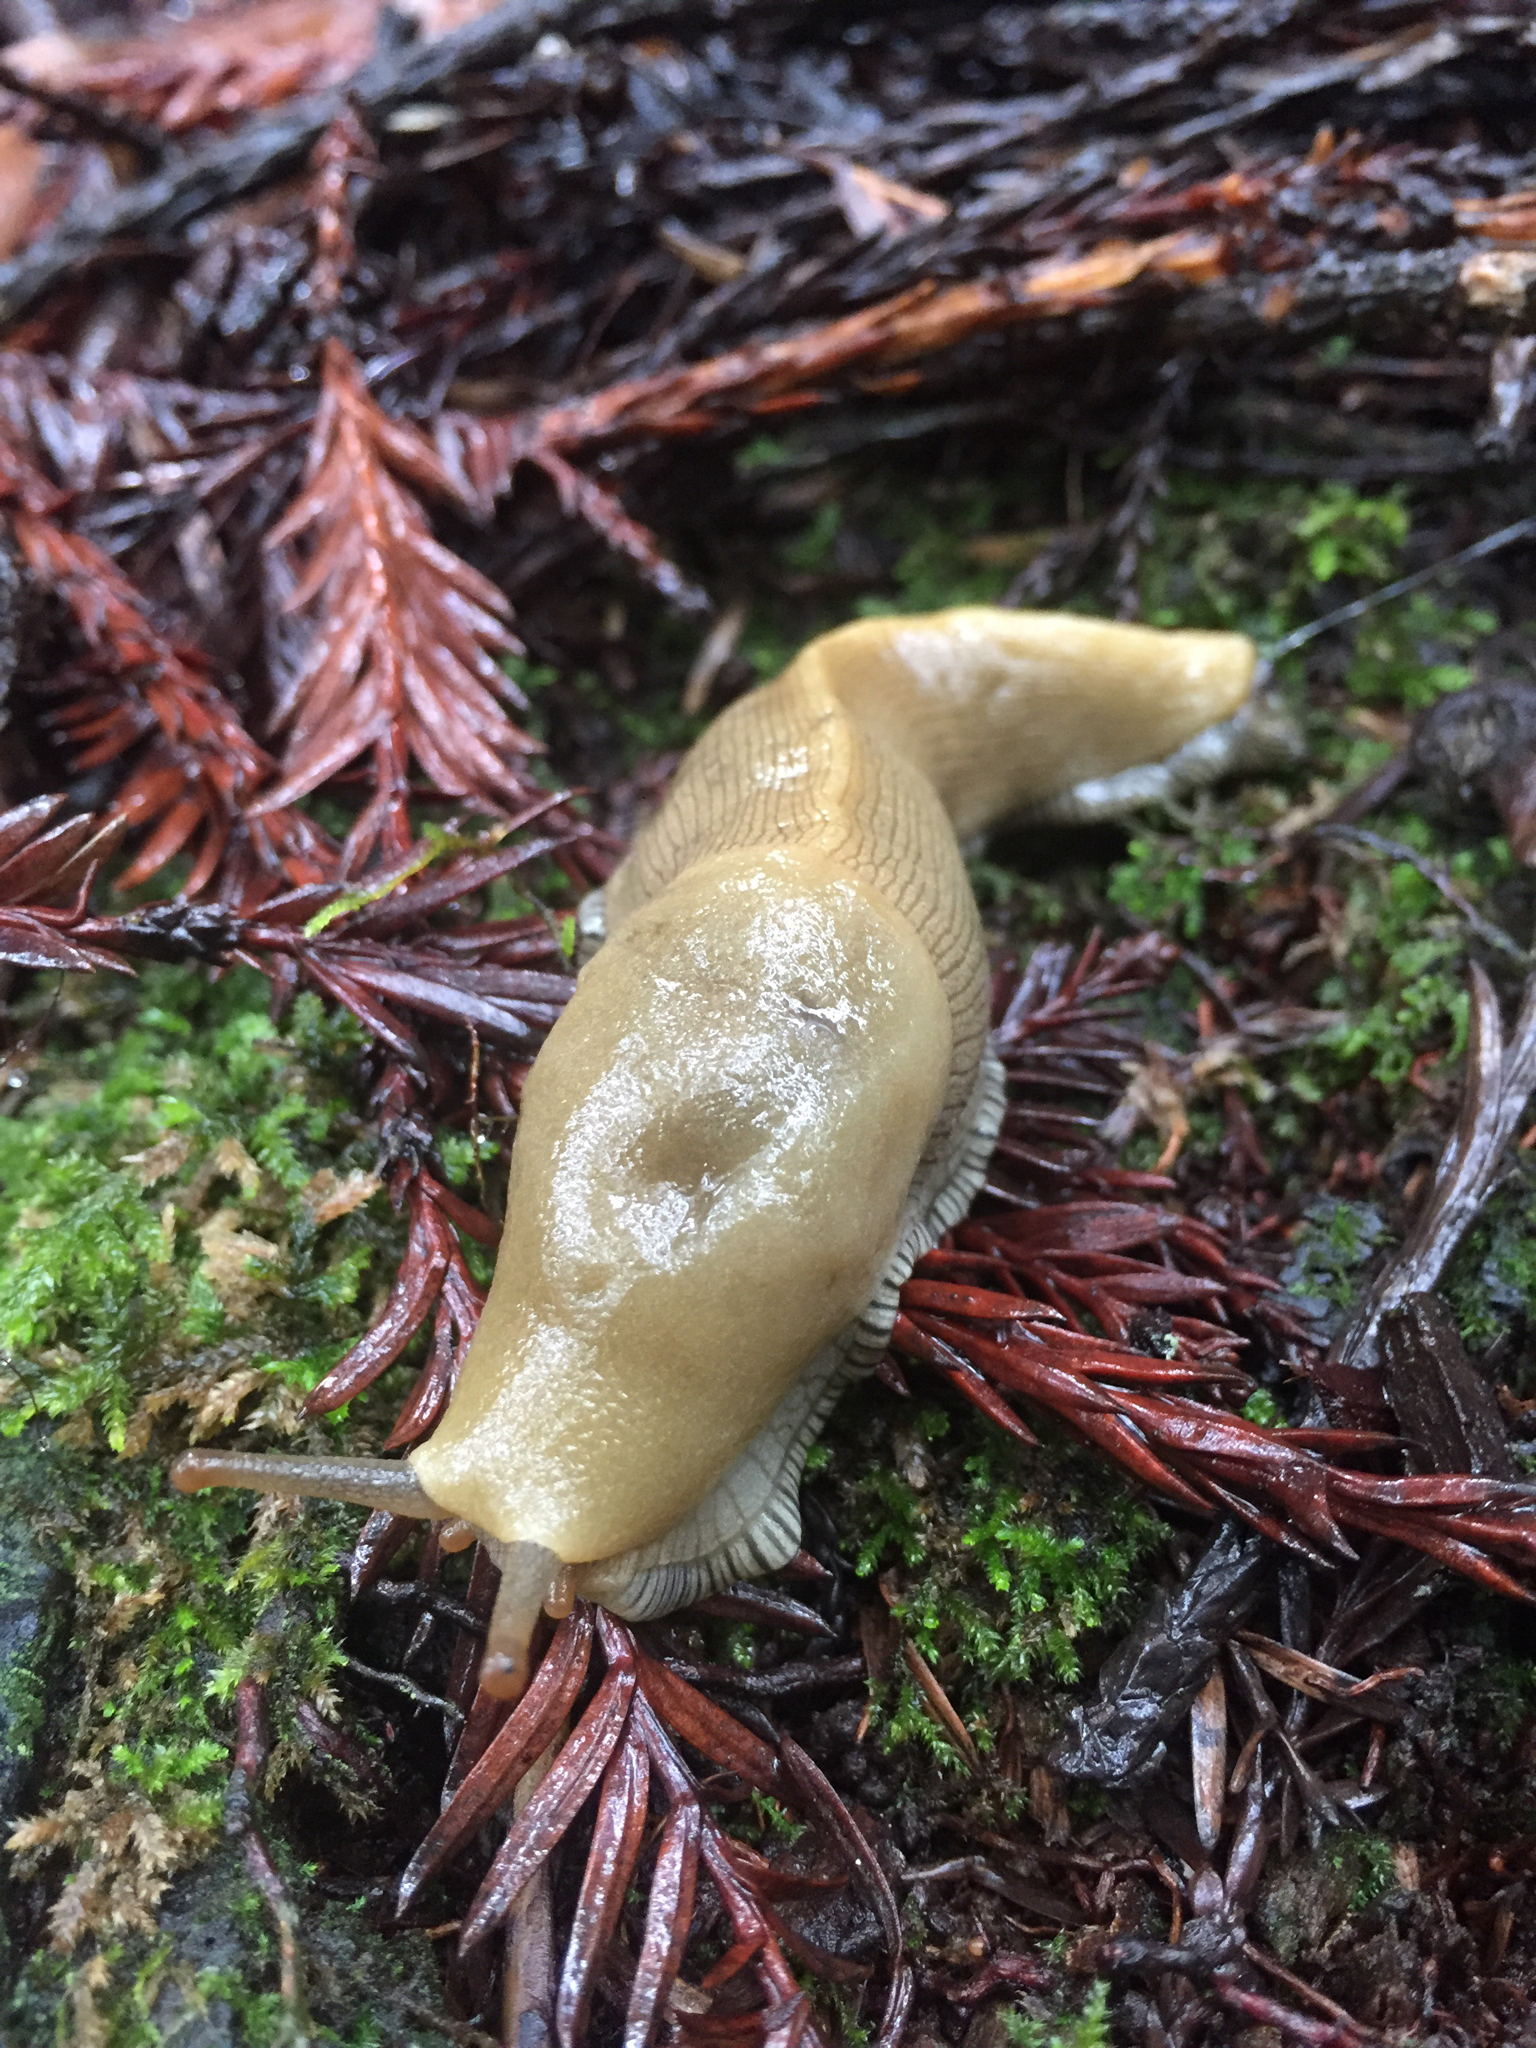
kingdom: Animalia
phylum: Mollusca
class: Gastropoda
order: Stylommatophora
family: Ariolimacidae
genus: Ariolimax
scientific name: Ariolimax buttoni
